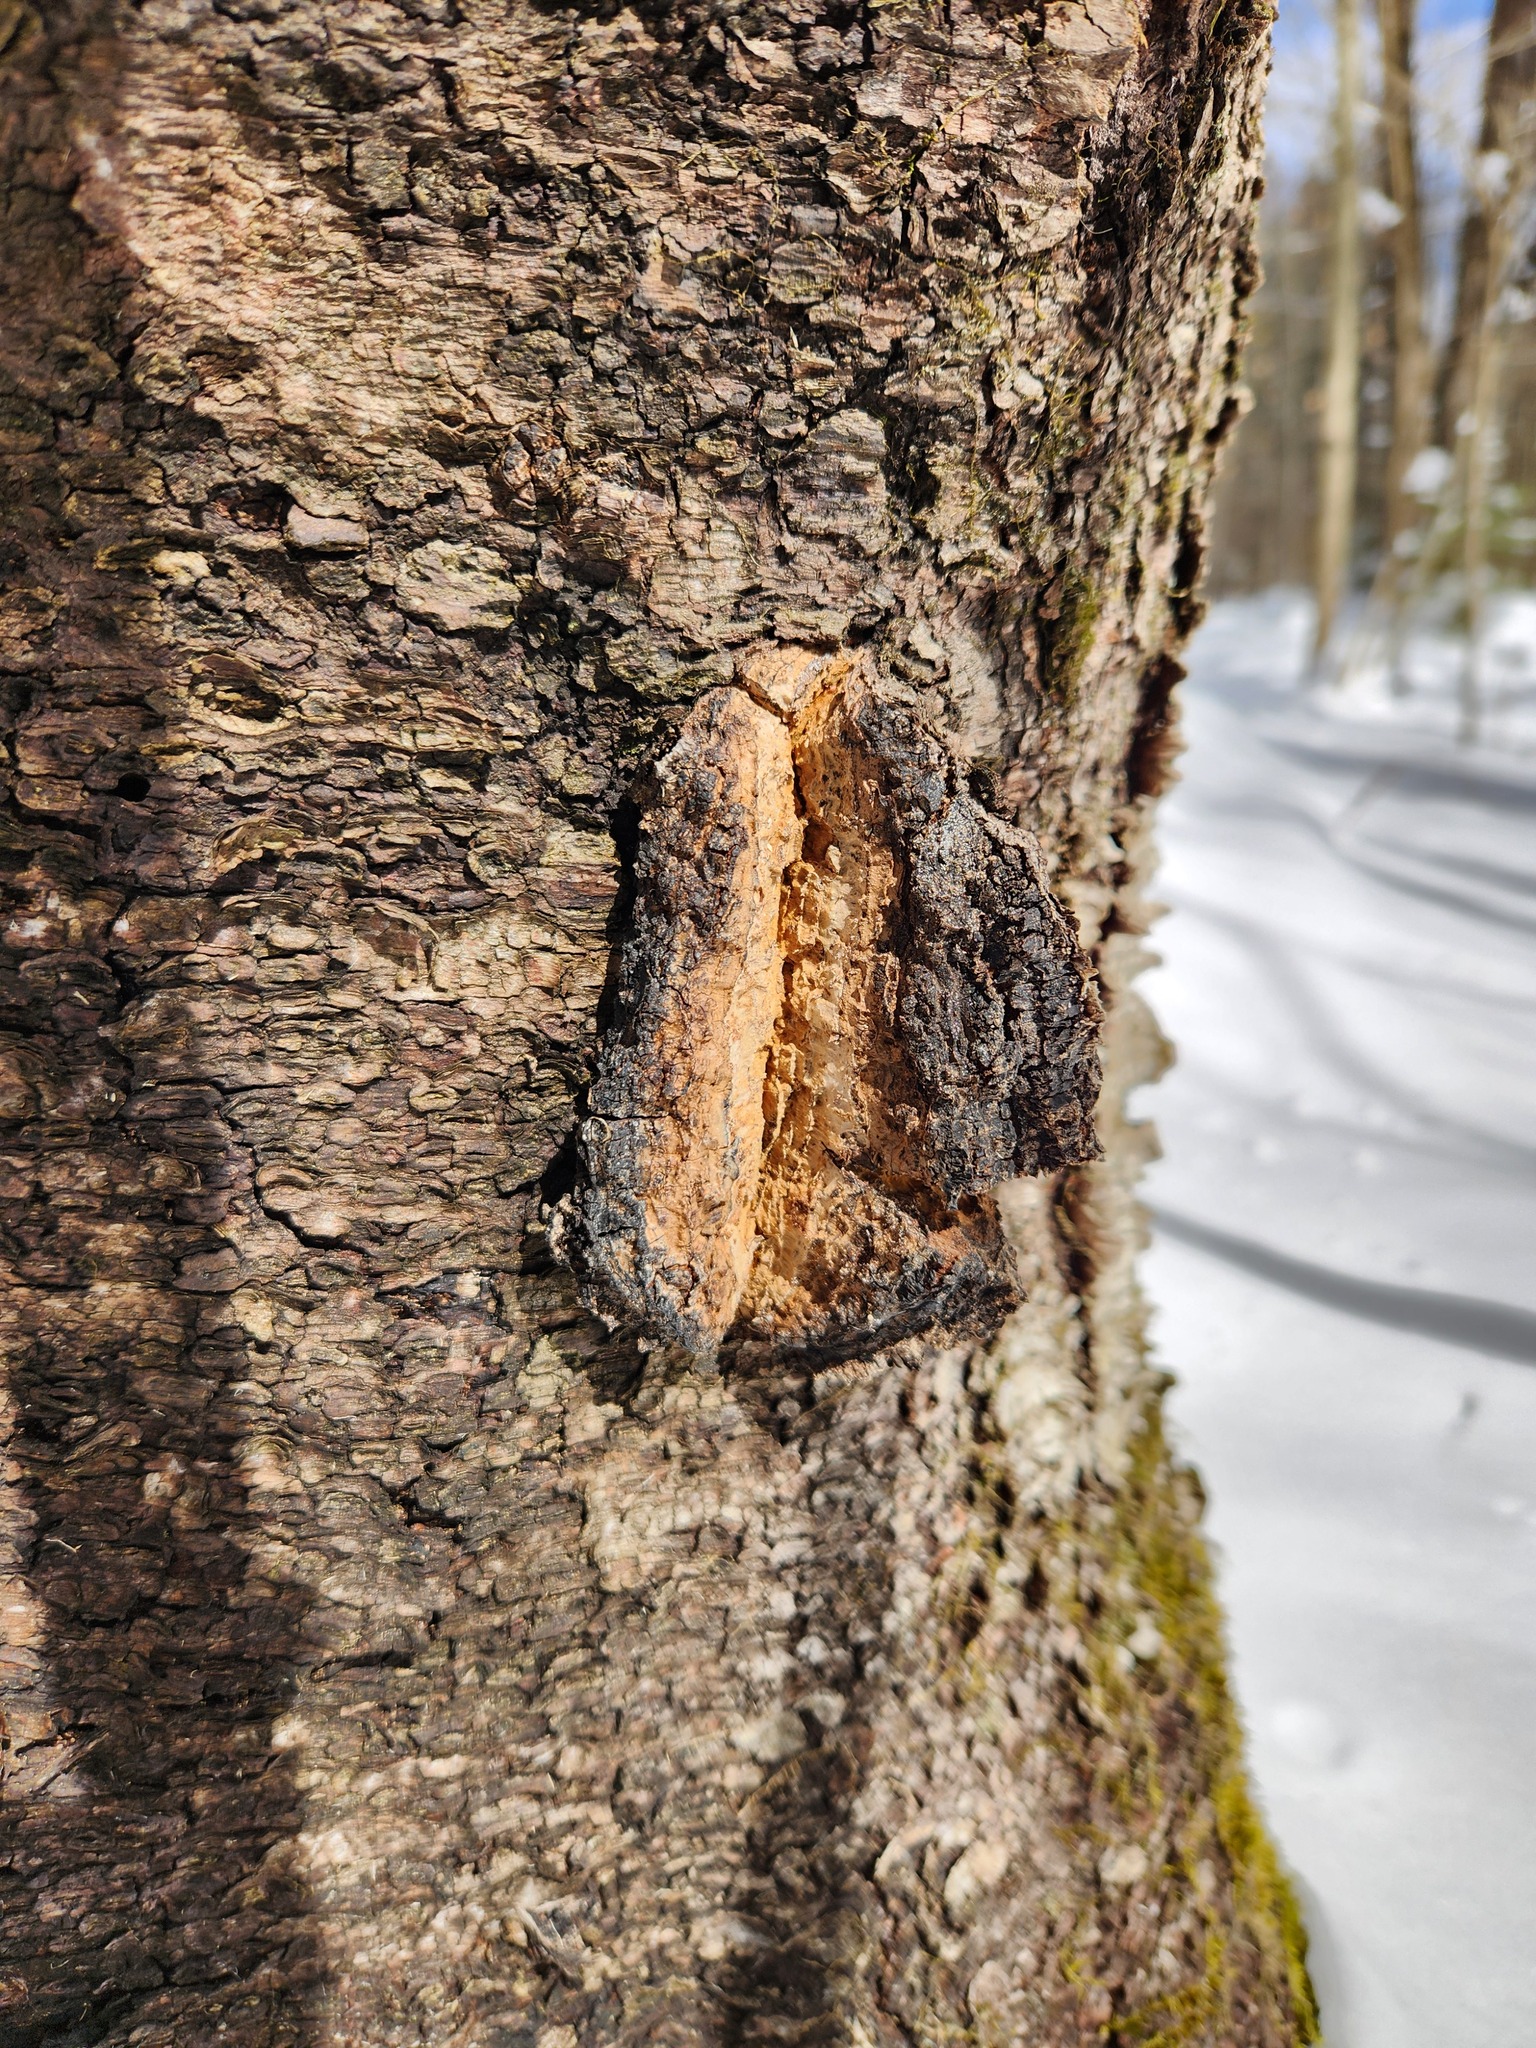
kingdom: Fungi
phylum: Basidiomycota
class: Agaricomycetes
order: Hymenochaetales
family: Hymenochaetaceae
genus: Inonotus
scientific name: Inonotus obliquus
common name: Chaga
